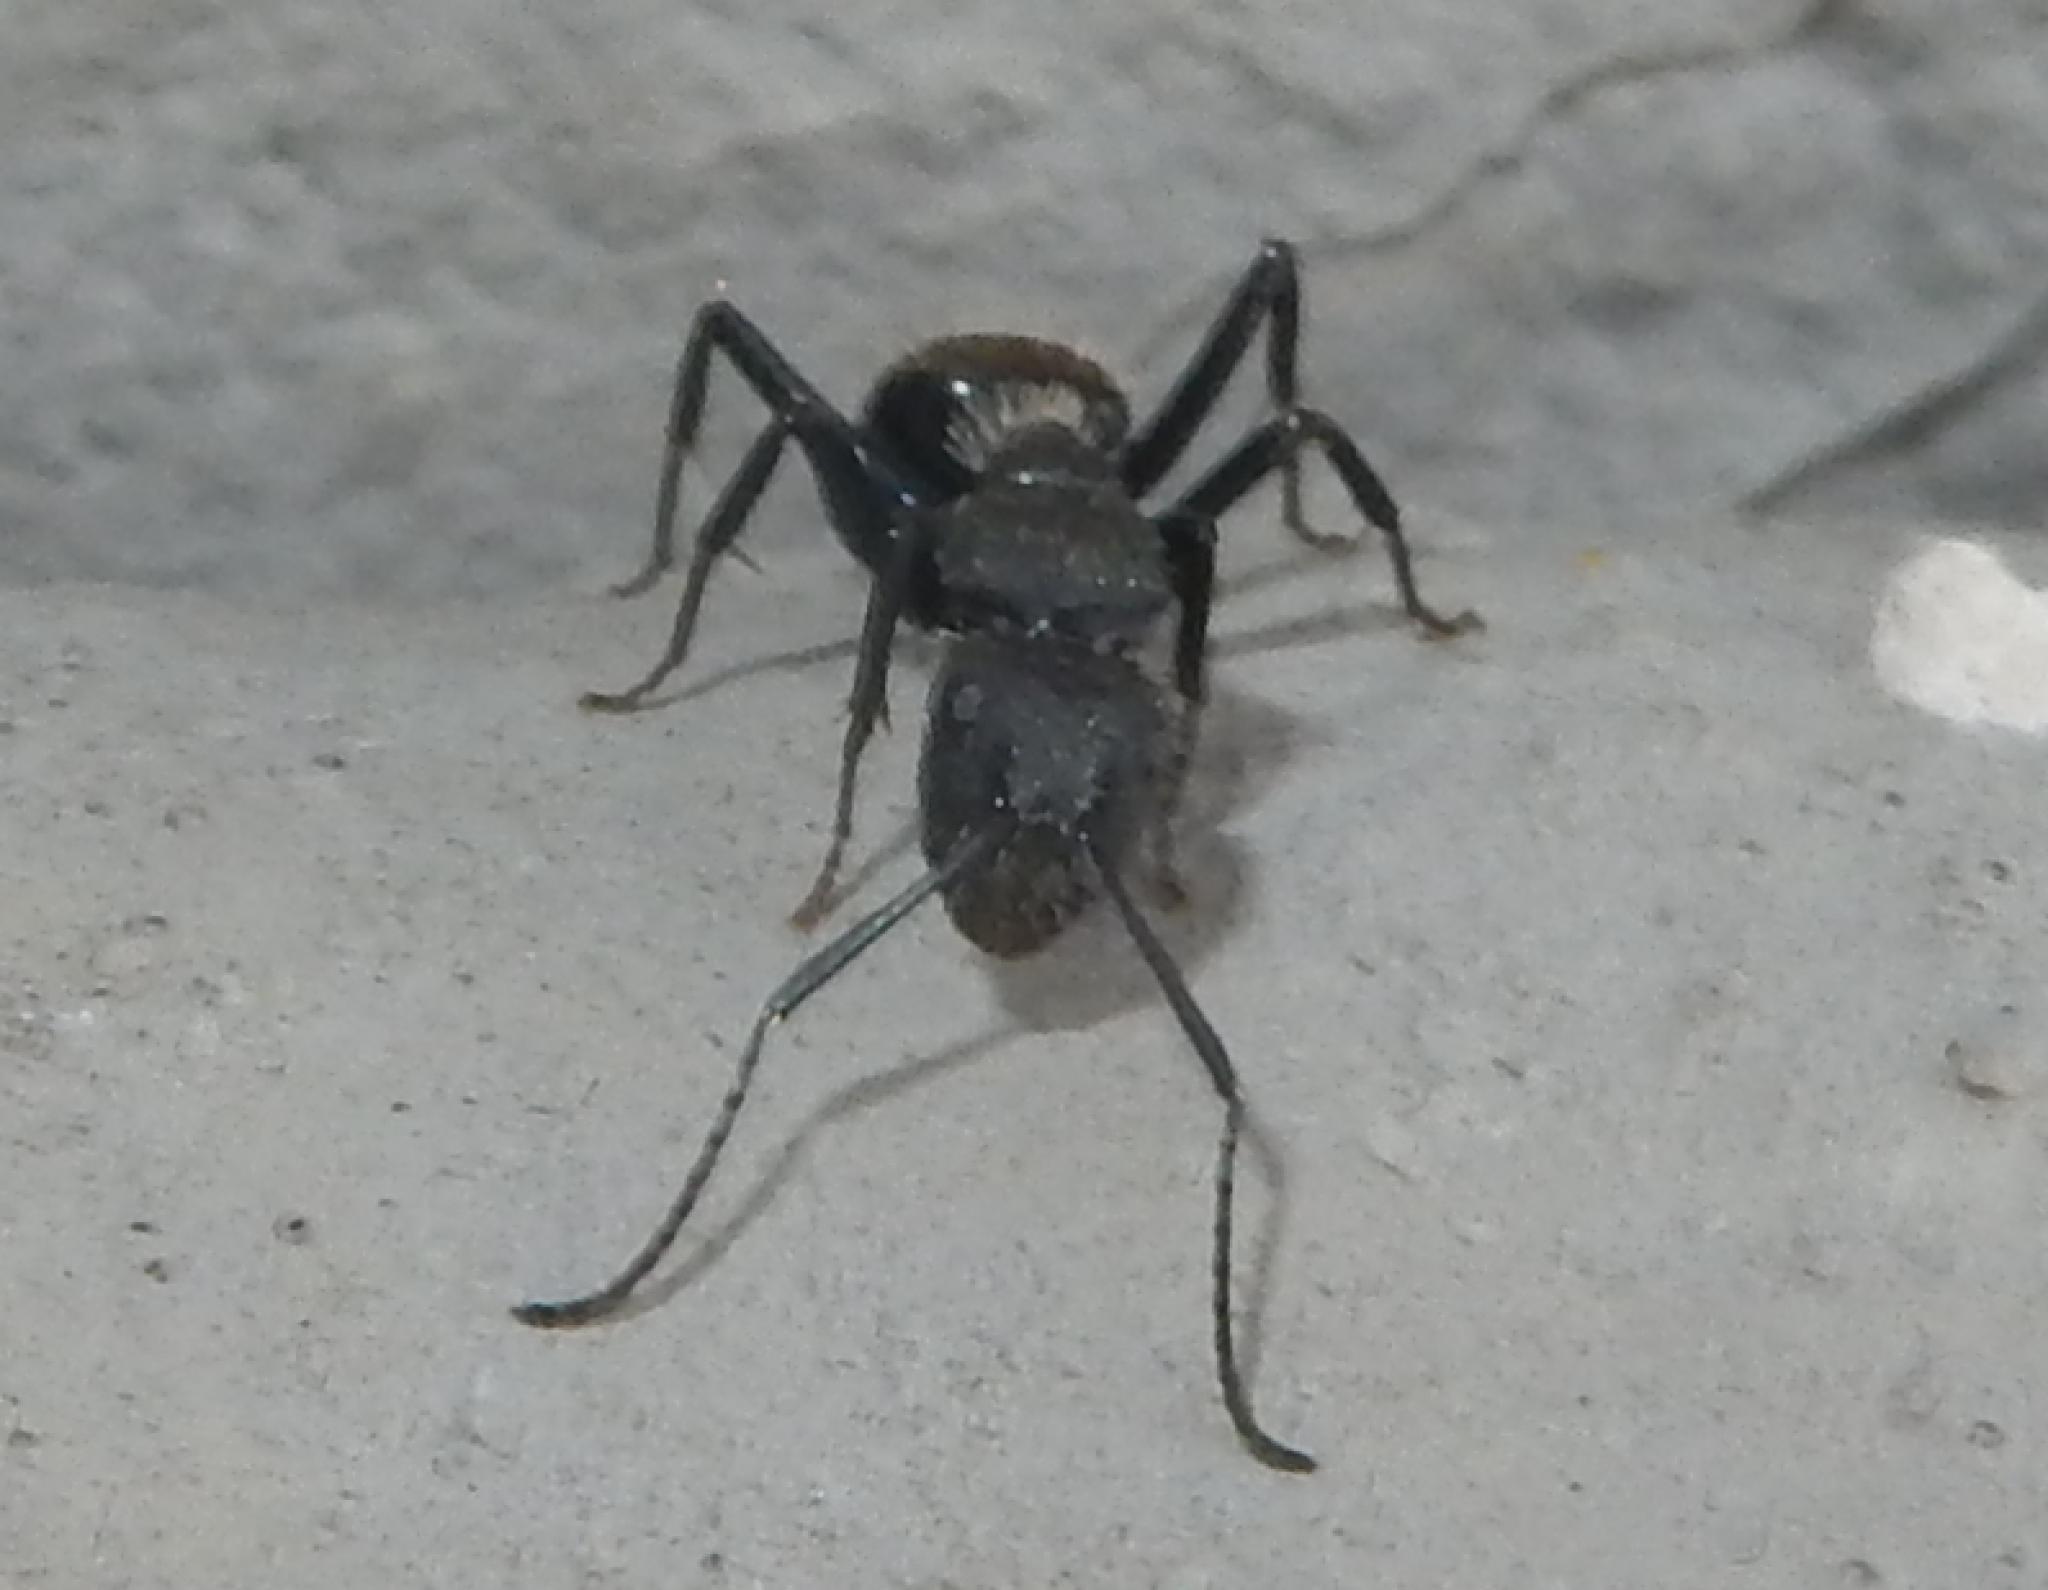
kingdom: Animalia
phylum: Arthropoda
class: Insecta
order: Hymenoptera
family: Formicidae
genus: Camponotus
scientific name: Camponotus postoculatus
